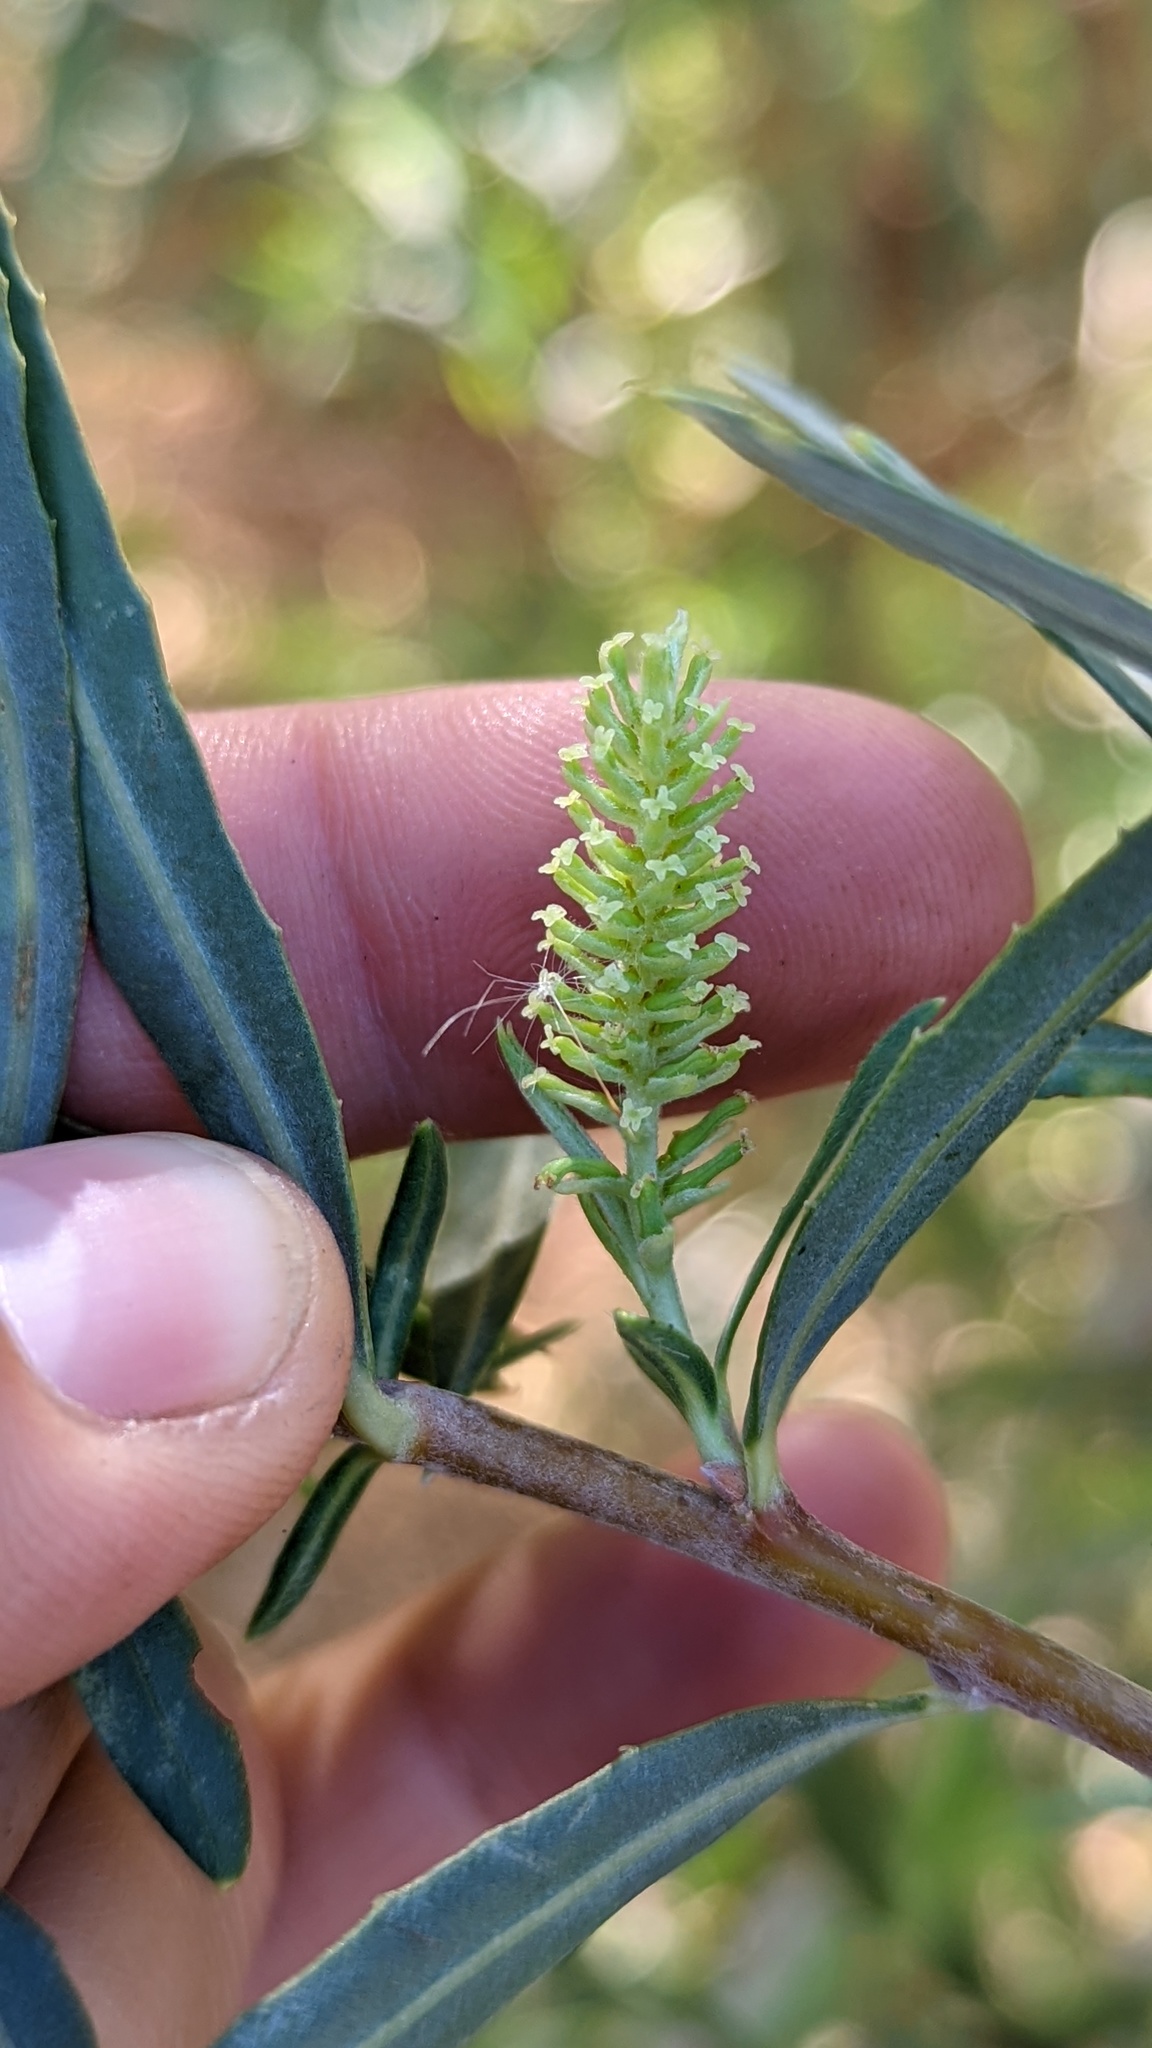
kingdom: Plantae
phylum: Tracheophyta
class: Magnoliopsida
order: Malpighiales
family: Salicaceae
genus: Salix
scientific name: Salix exigua
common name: Coyote willow
